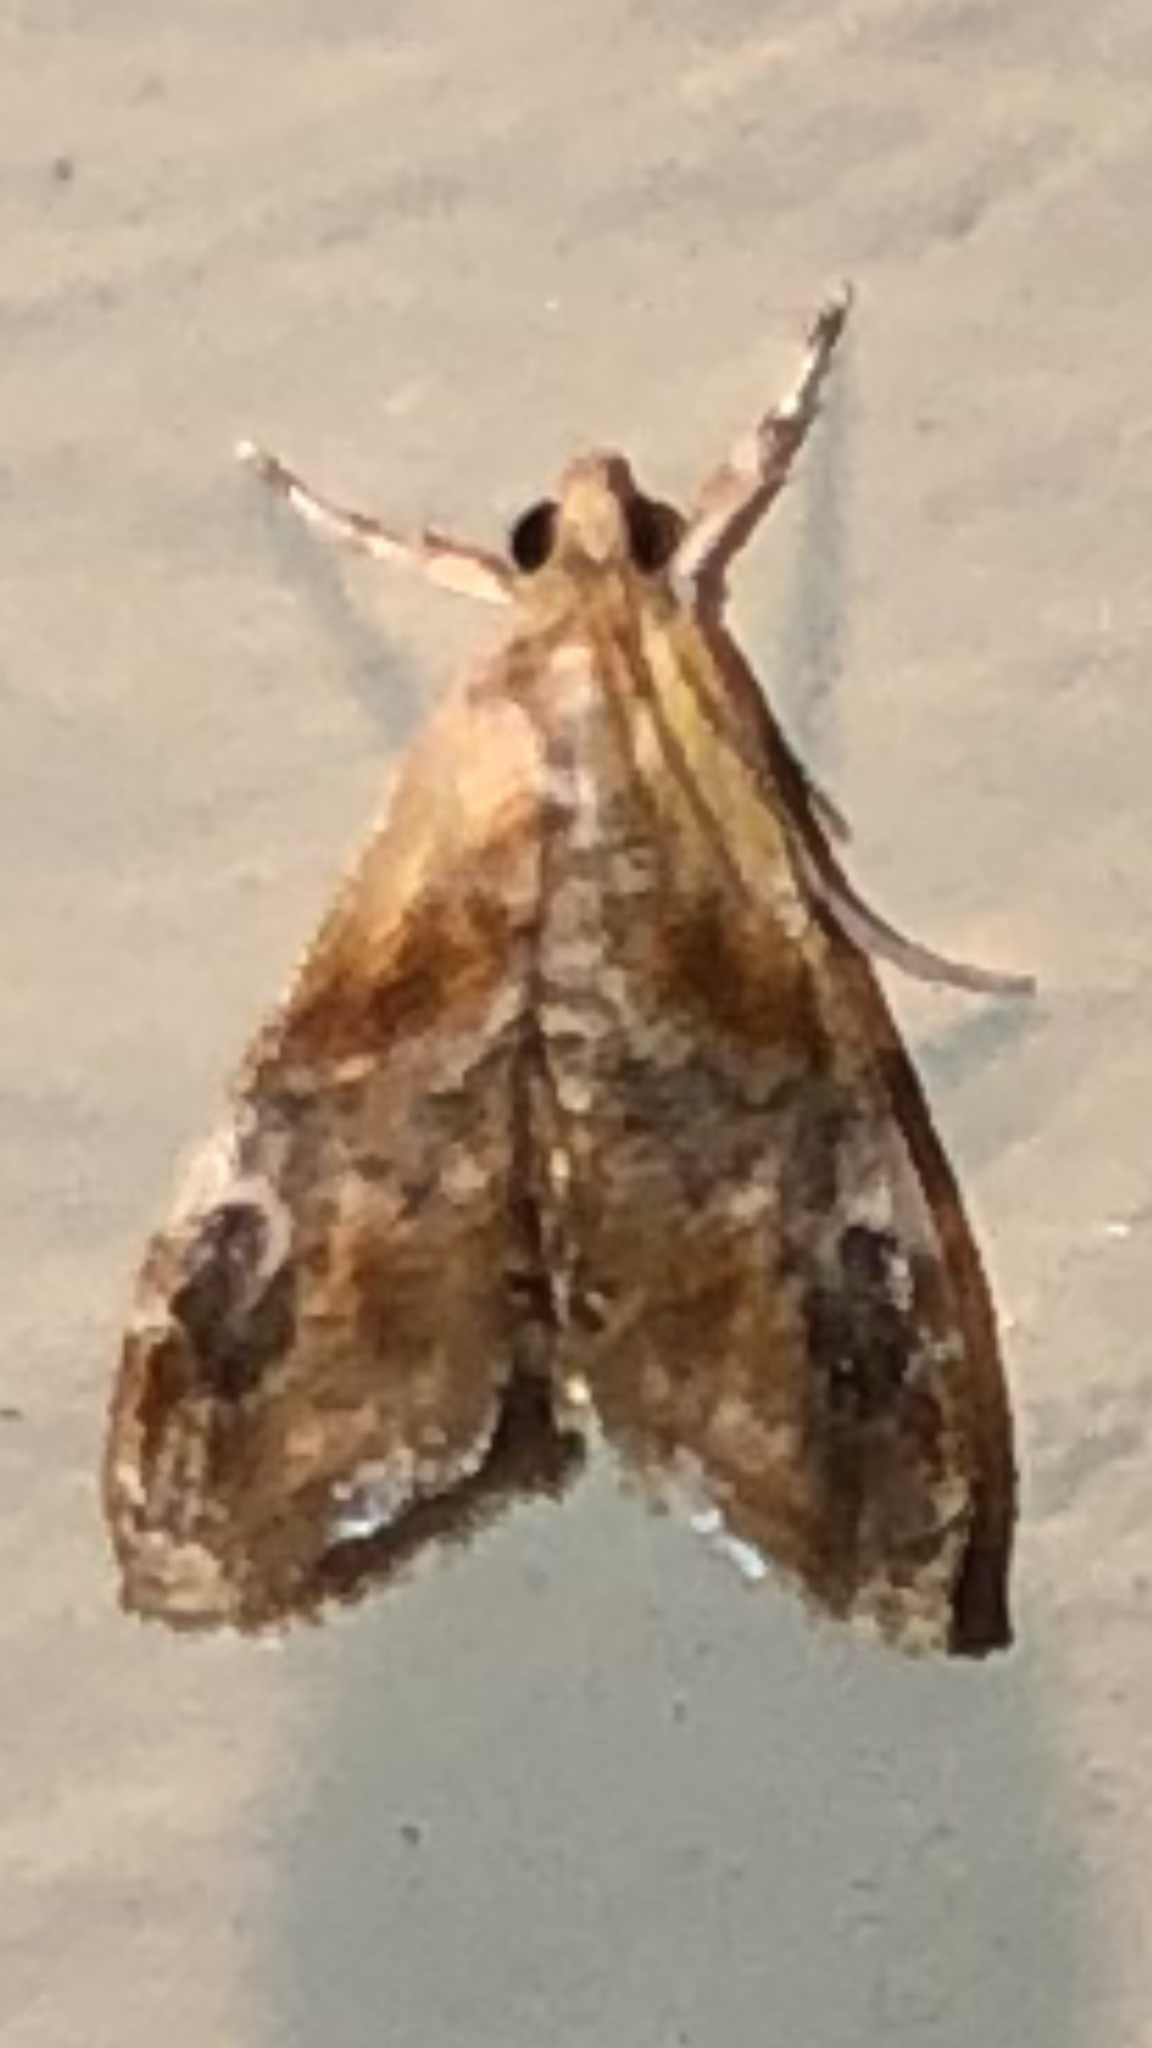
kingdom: Animalia
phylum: Arthropoda
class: Insecta
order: Lepidoptera
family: Crambidae
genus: Dicymolomia
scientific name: Dicymolomia julianalis
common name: Julia's dicymolomia moth
